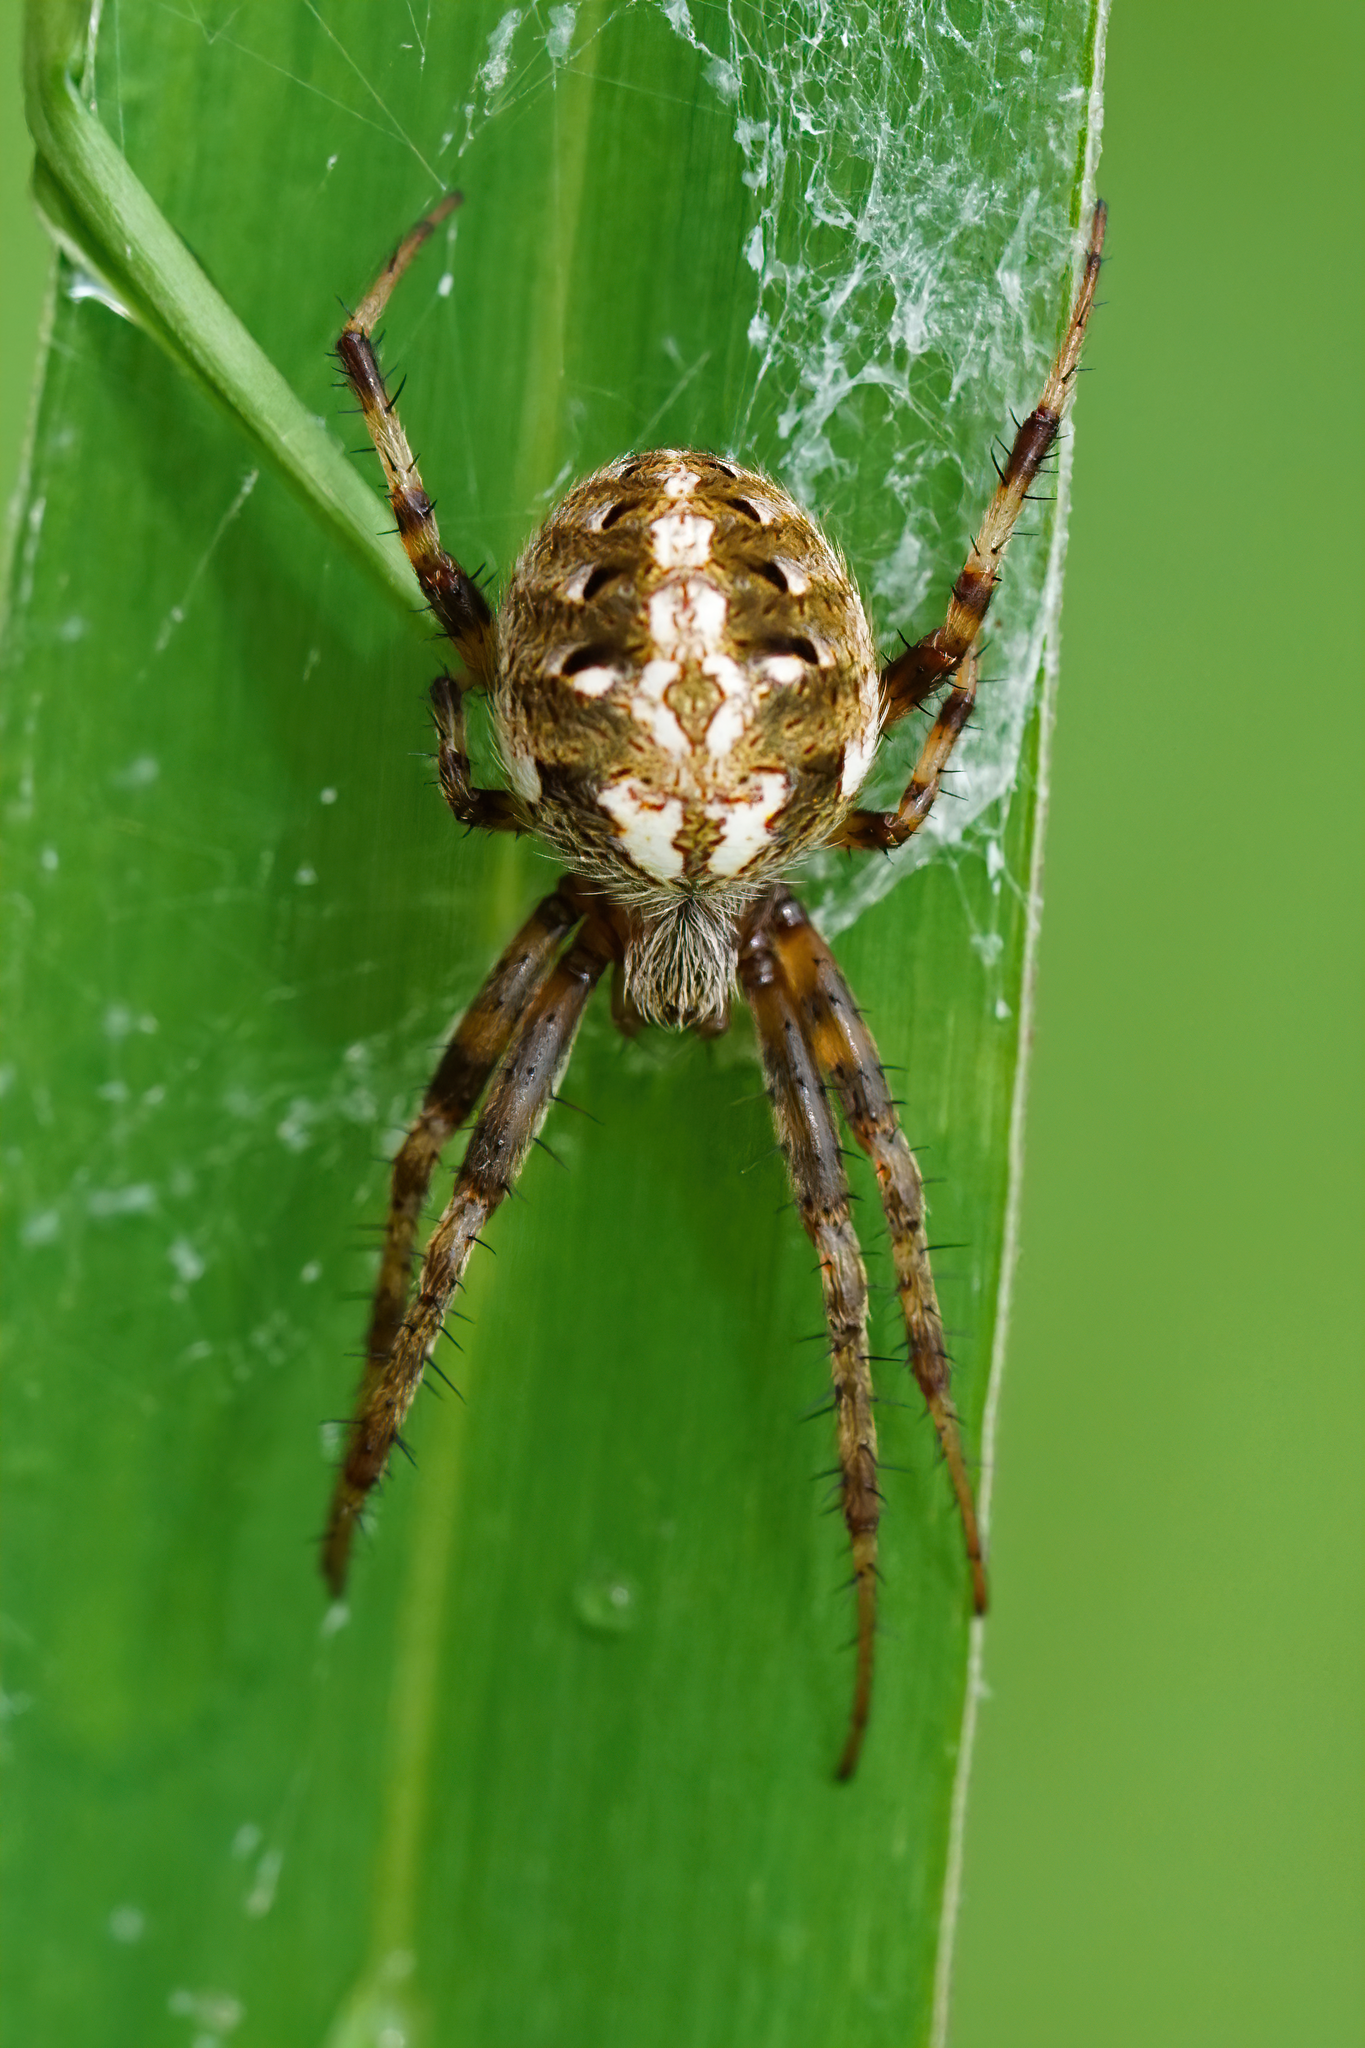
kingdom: Animalia
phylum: Arthropoda
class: Arachnida
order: Araneae
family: Araneidae
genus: Neoscona
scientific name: Neoscona arabesca
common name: Orb weavers
